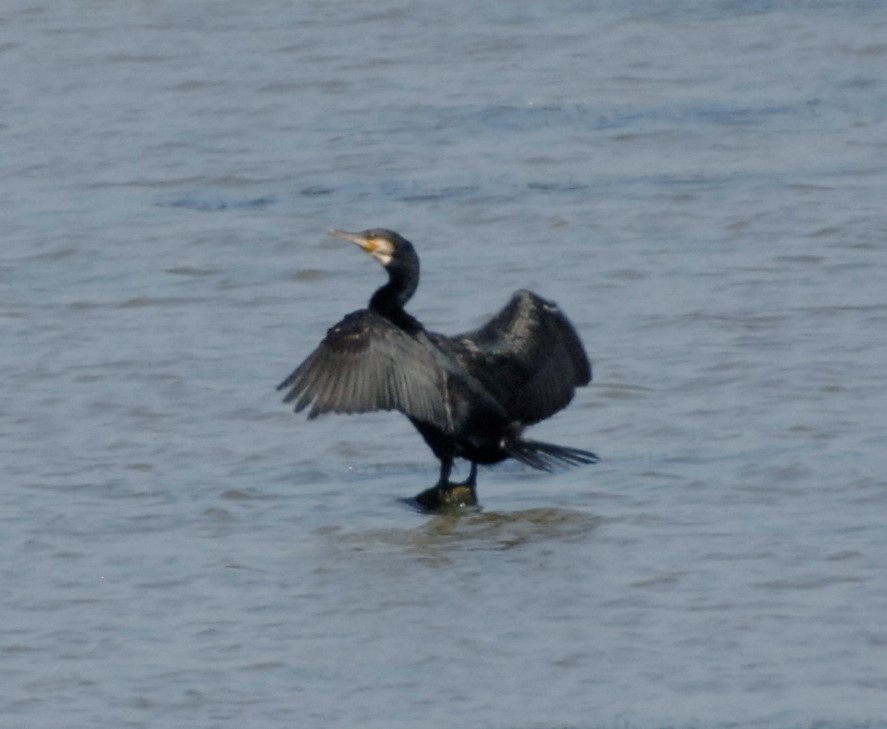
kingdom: Animalia
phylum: Chordata
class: Aves
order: Suliformes
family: Phalacrocoracidae
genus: Phalacrocorax
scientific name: Phalacrocorax carbo
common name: Great cormorant
